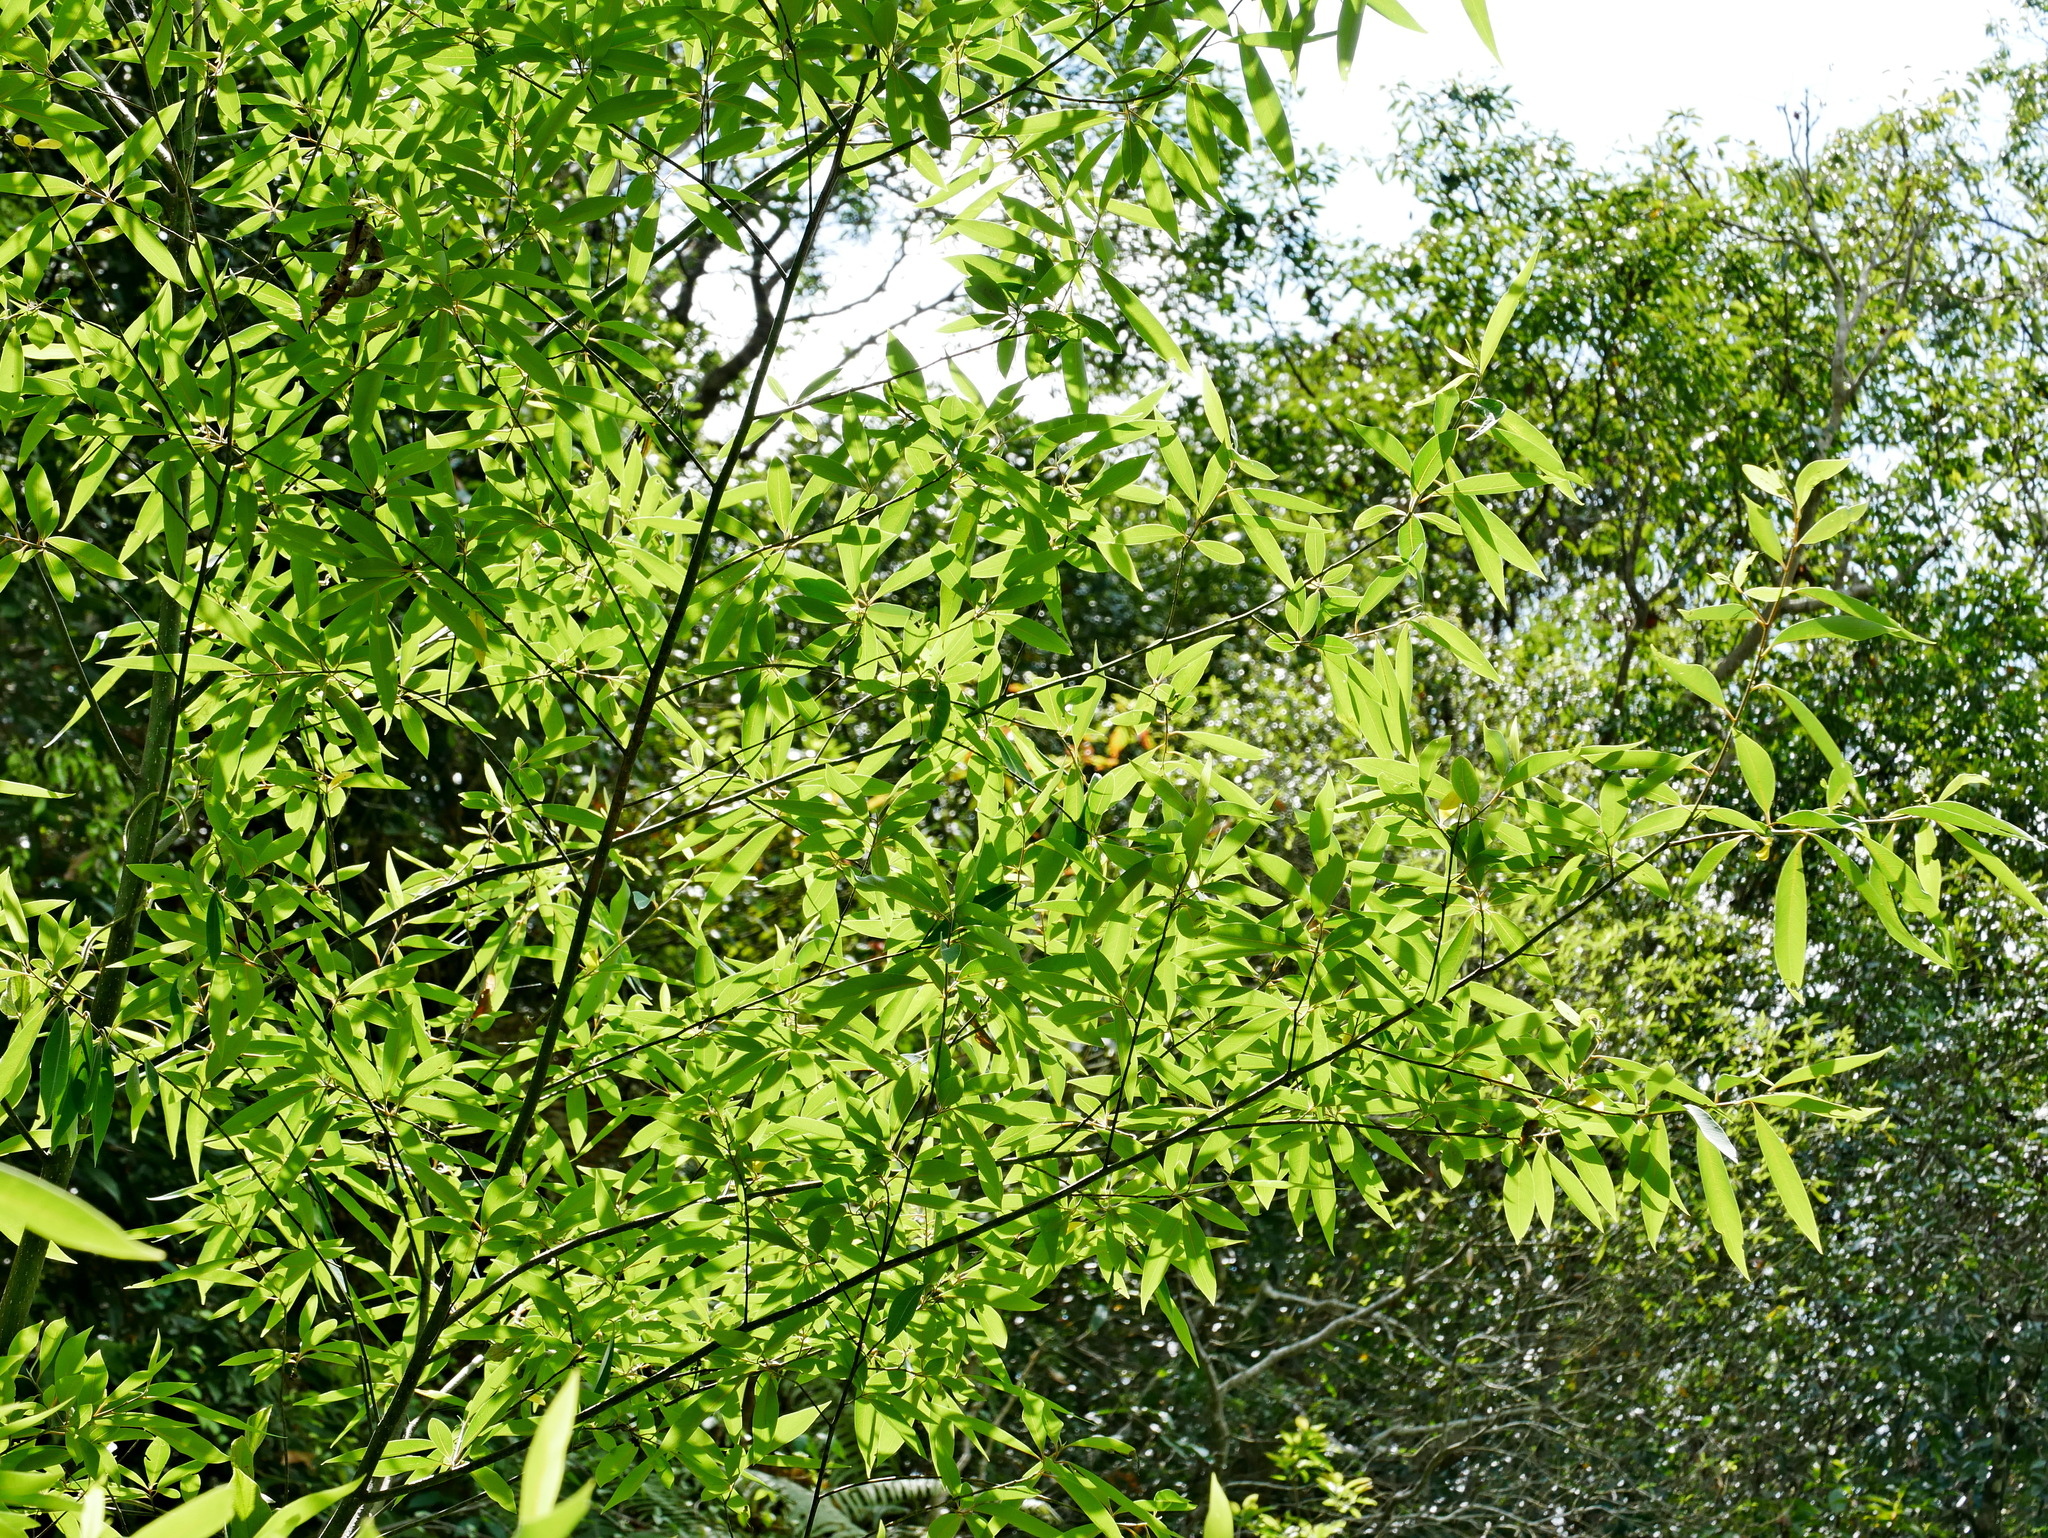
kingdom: Plantae
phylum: Tracheophyta
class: Magnoliopsida
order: Laurales
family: Lauraceae
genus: Litsea
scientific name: Litsea cubeba
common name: Mountain-pepper
